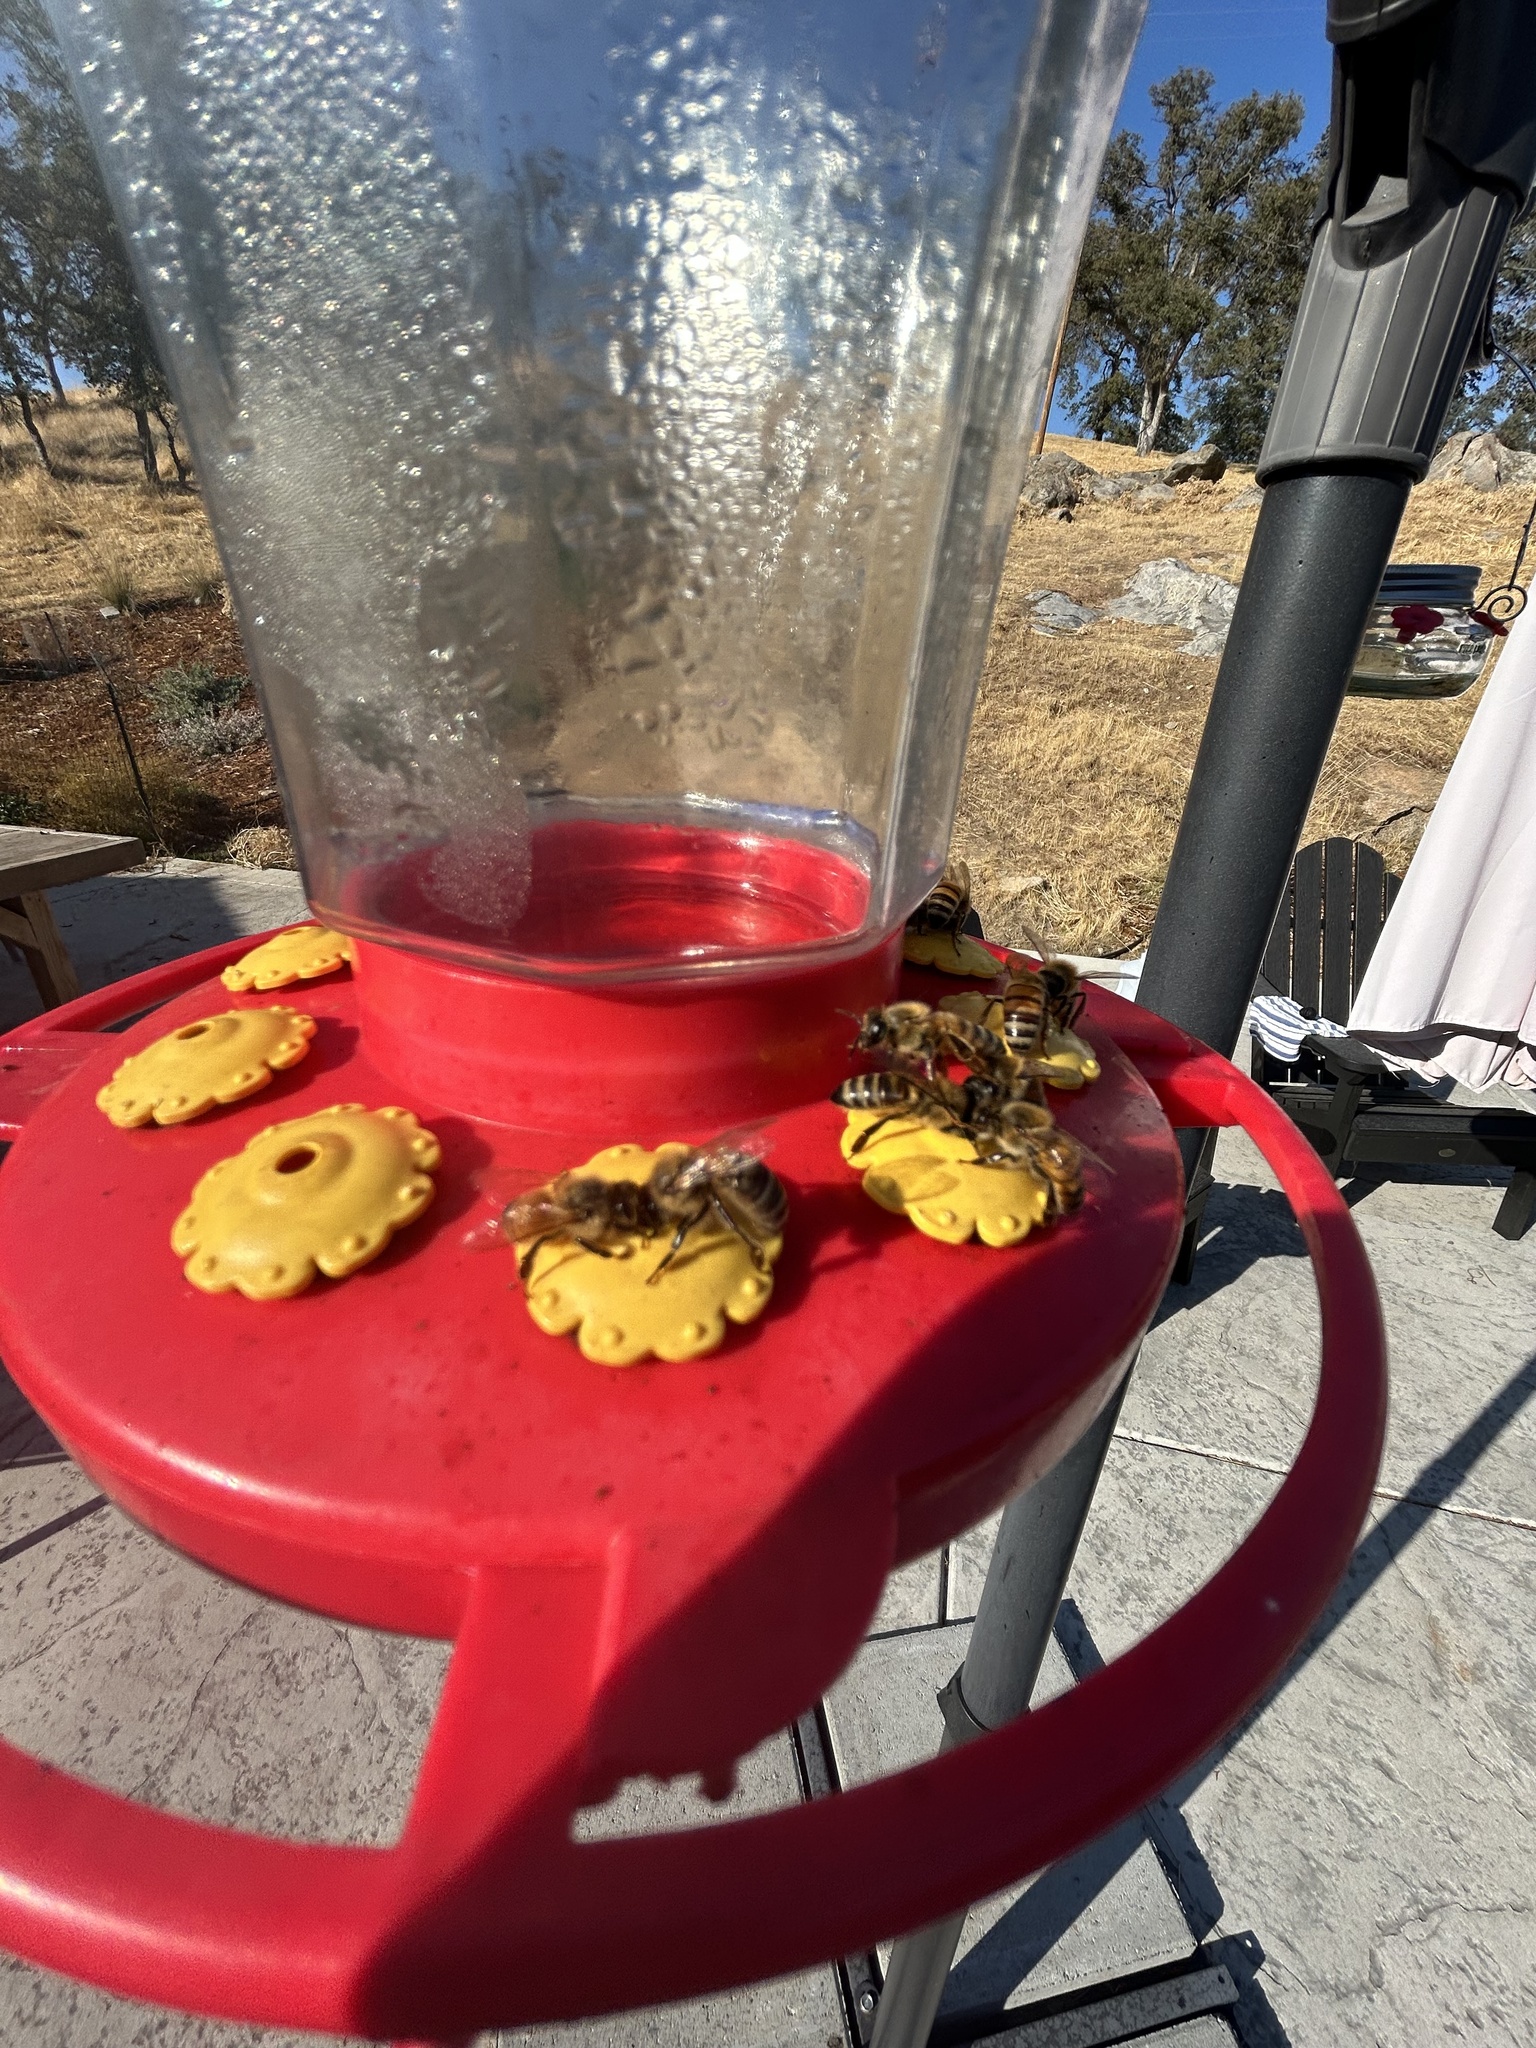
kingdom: Animalia
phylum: Arthropoda
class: Insecta
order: Hymenoptera
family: Apidae
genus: Apis
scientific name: Apis mellifera
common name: Honey bee
